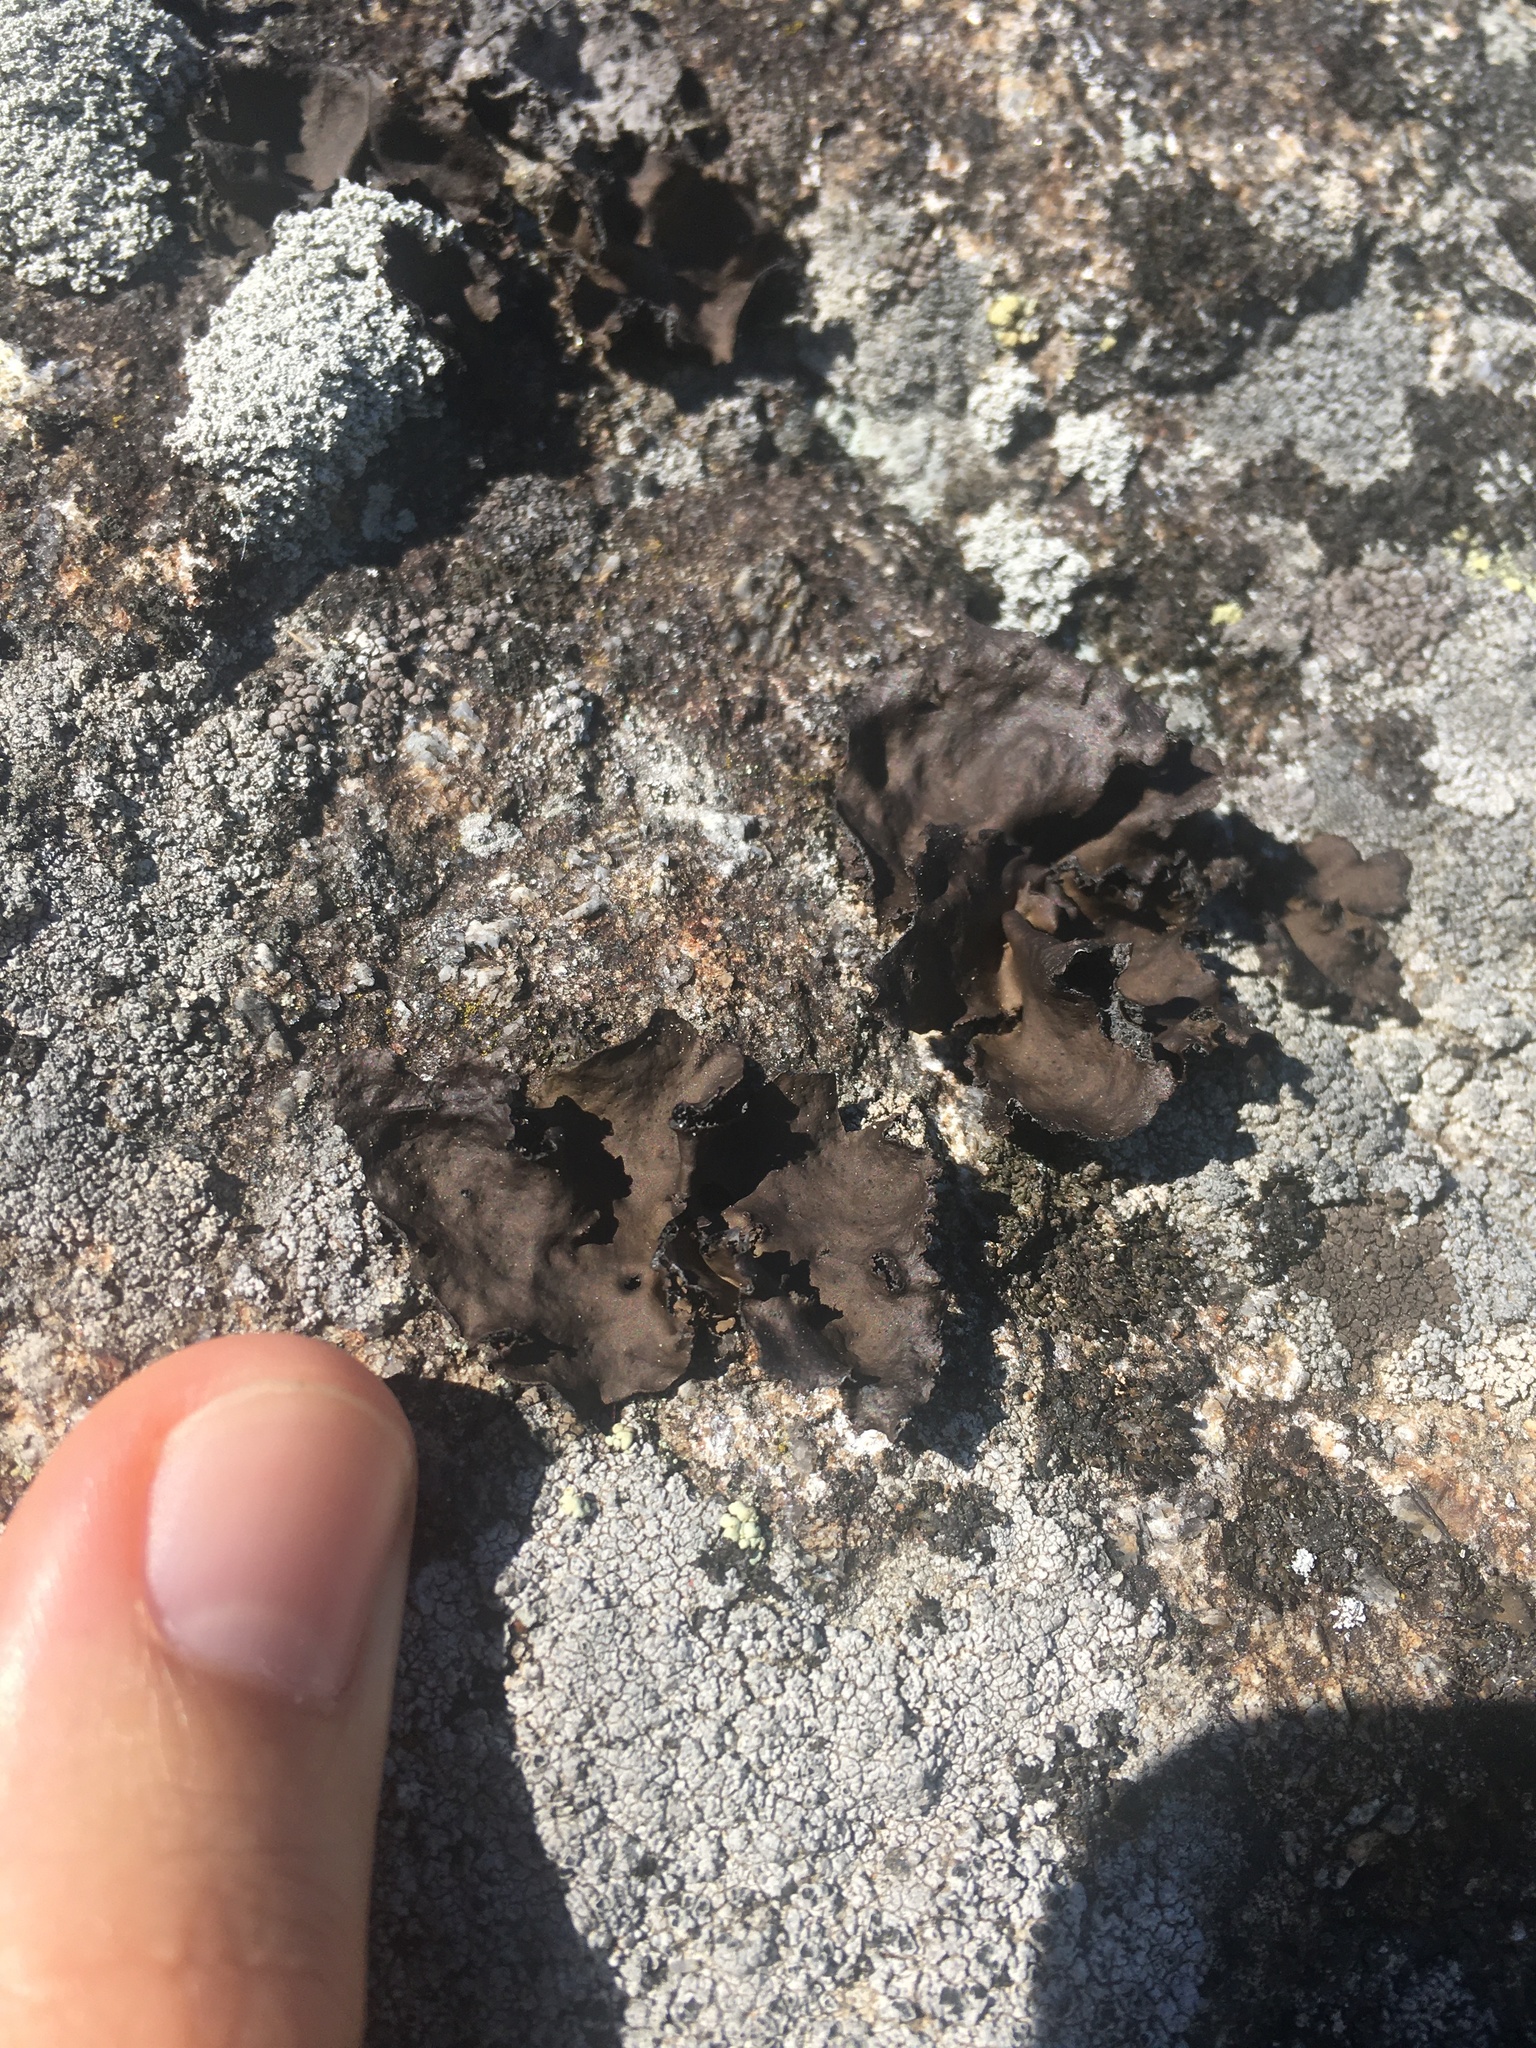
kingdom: Fungi
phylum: Ascomycota
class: Lecanoromycetes
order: Umbilicariales
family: Umbilicariaceae
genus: Umbilicaria
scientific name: Umbilicaria muhlenbergii
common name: Lesser rocktripe
